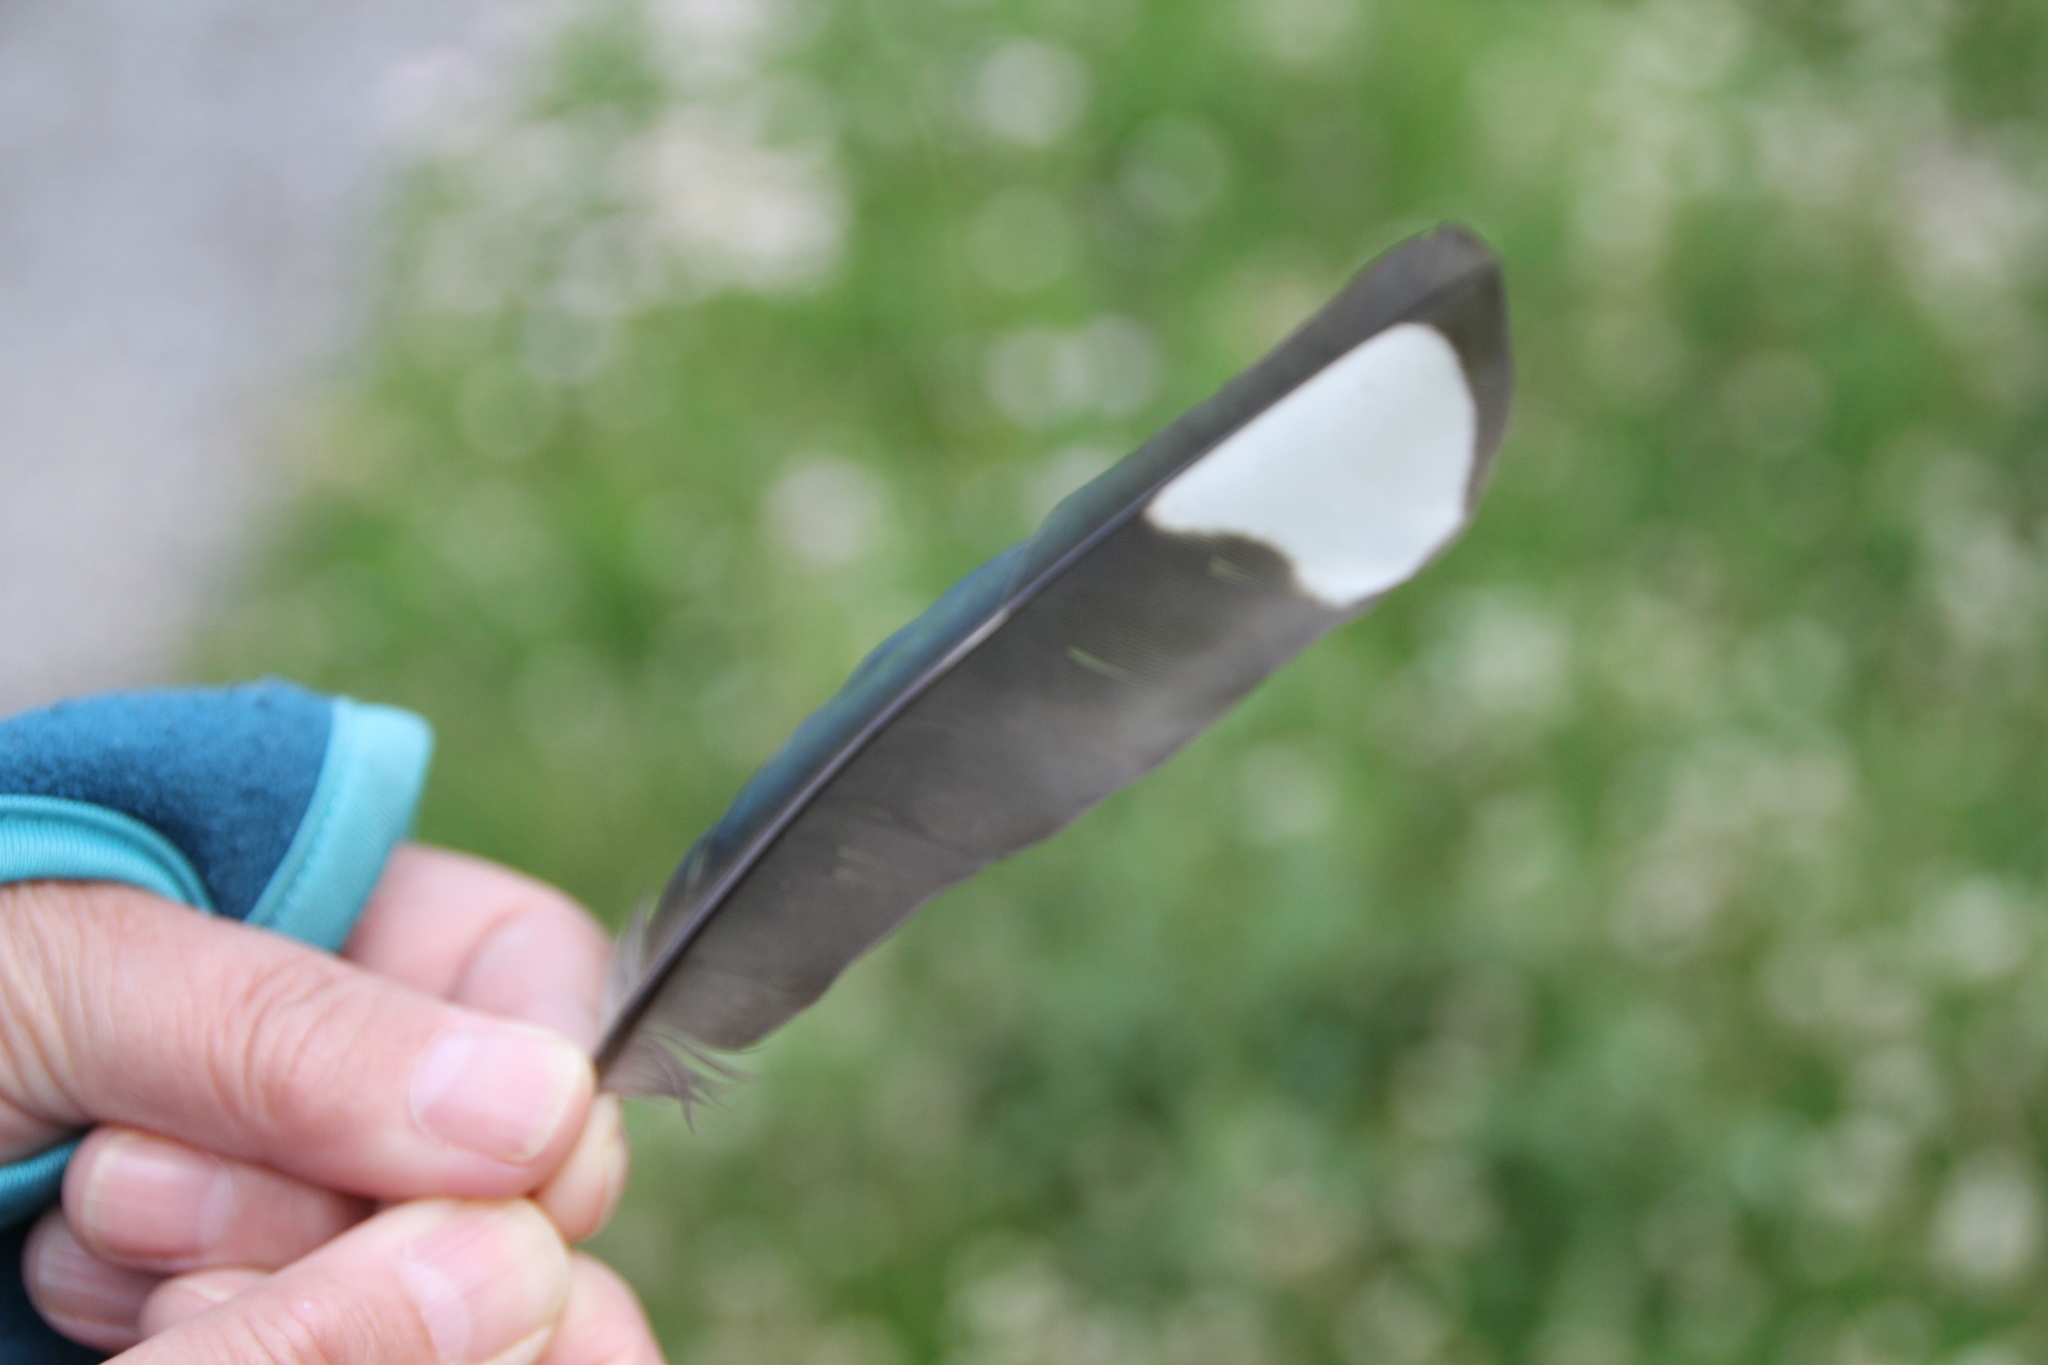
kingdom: Animalia
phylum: Chordata
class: Aves
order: Passeriformes
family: Corvidae
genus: Pica
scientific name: Pica pica
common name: Eurasian magpie
